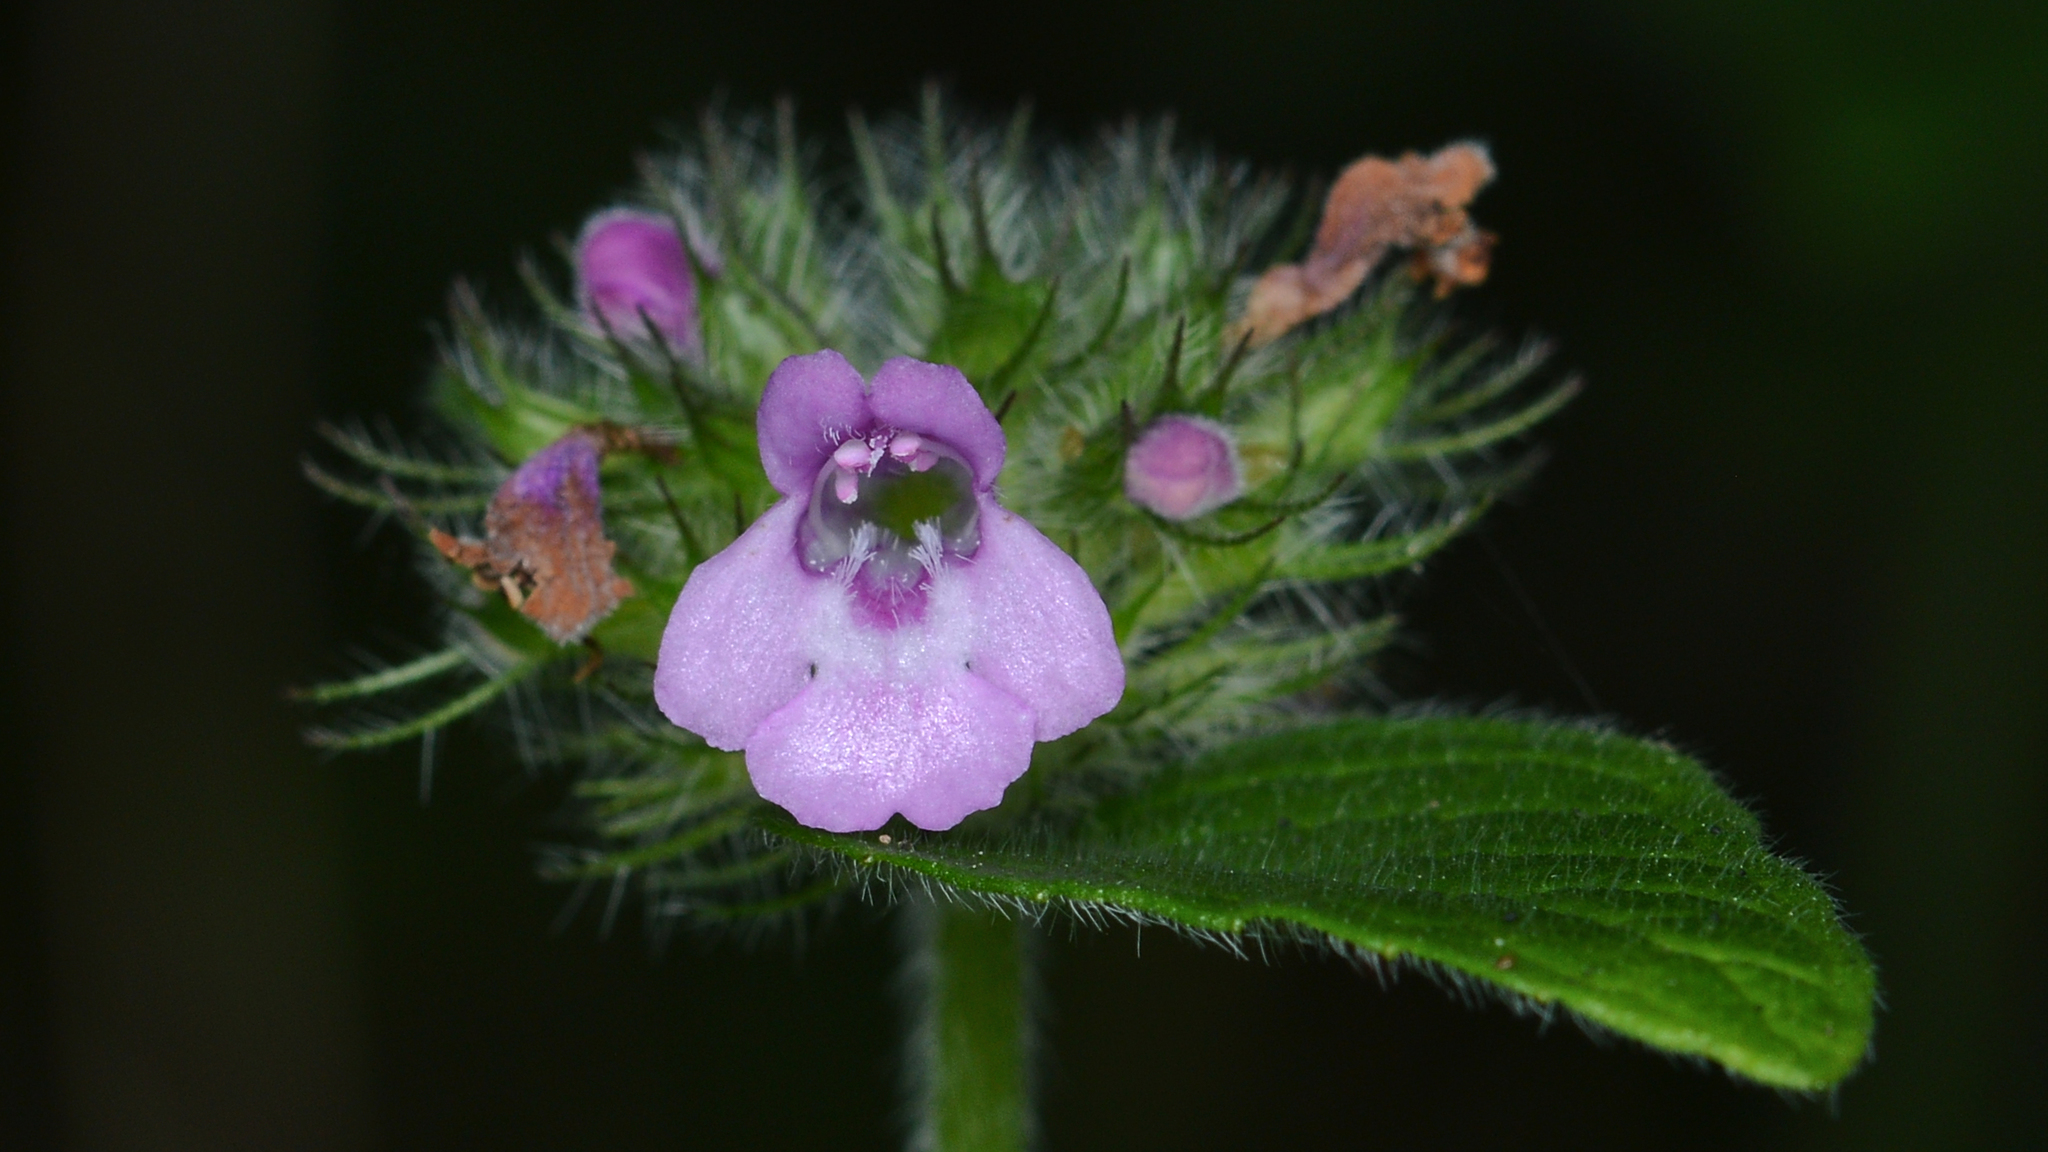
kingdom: Plantae
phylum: Tracheophyta
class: Magnoliopsida
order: Lamiales
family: Lamiaceae
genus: Clinopodium
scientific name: Clinopodium vulgare
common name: Wild basil
